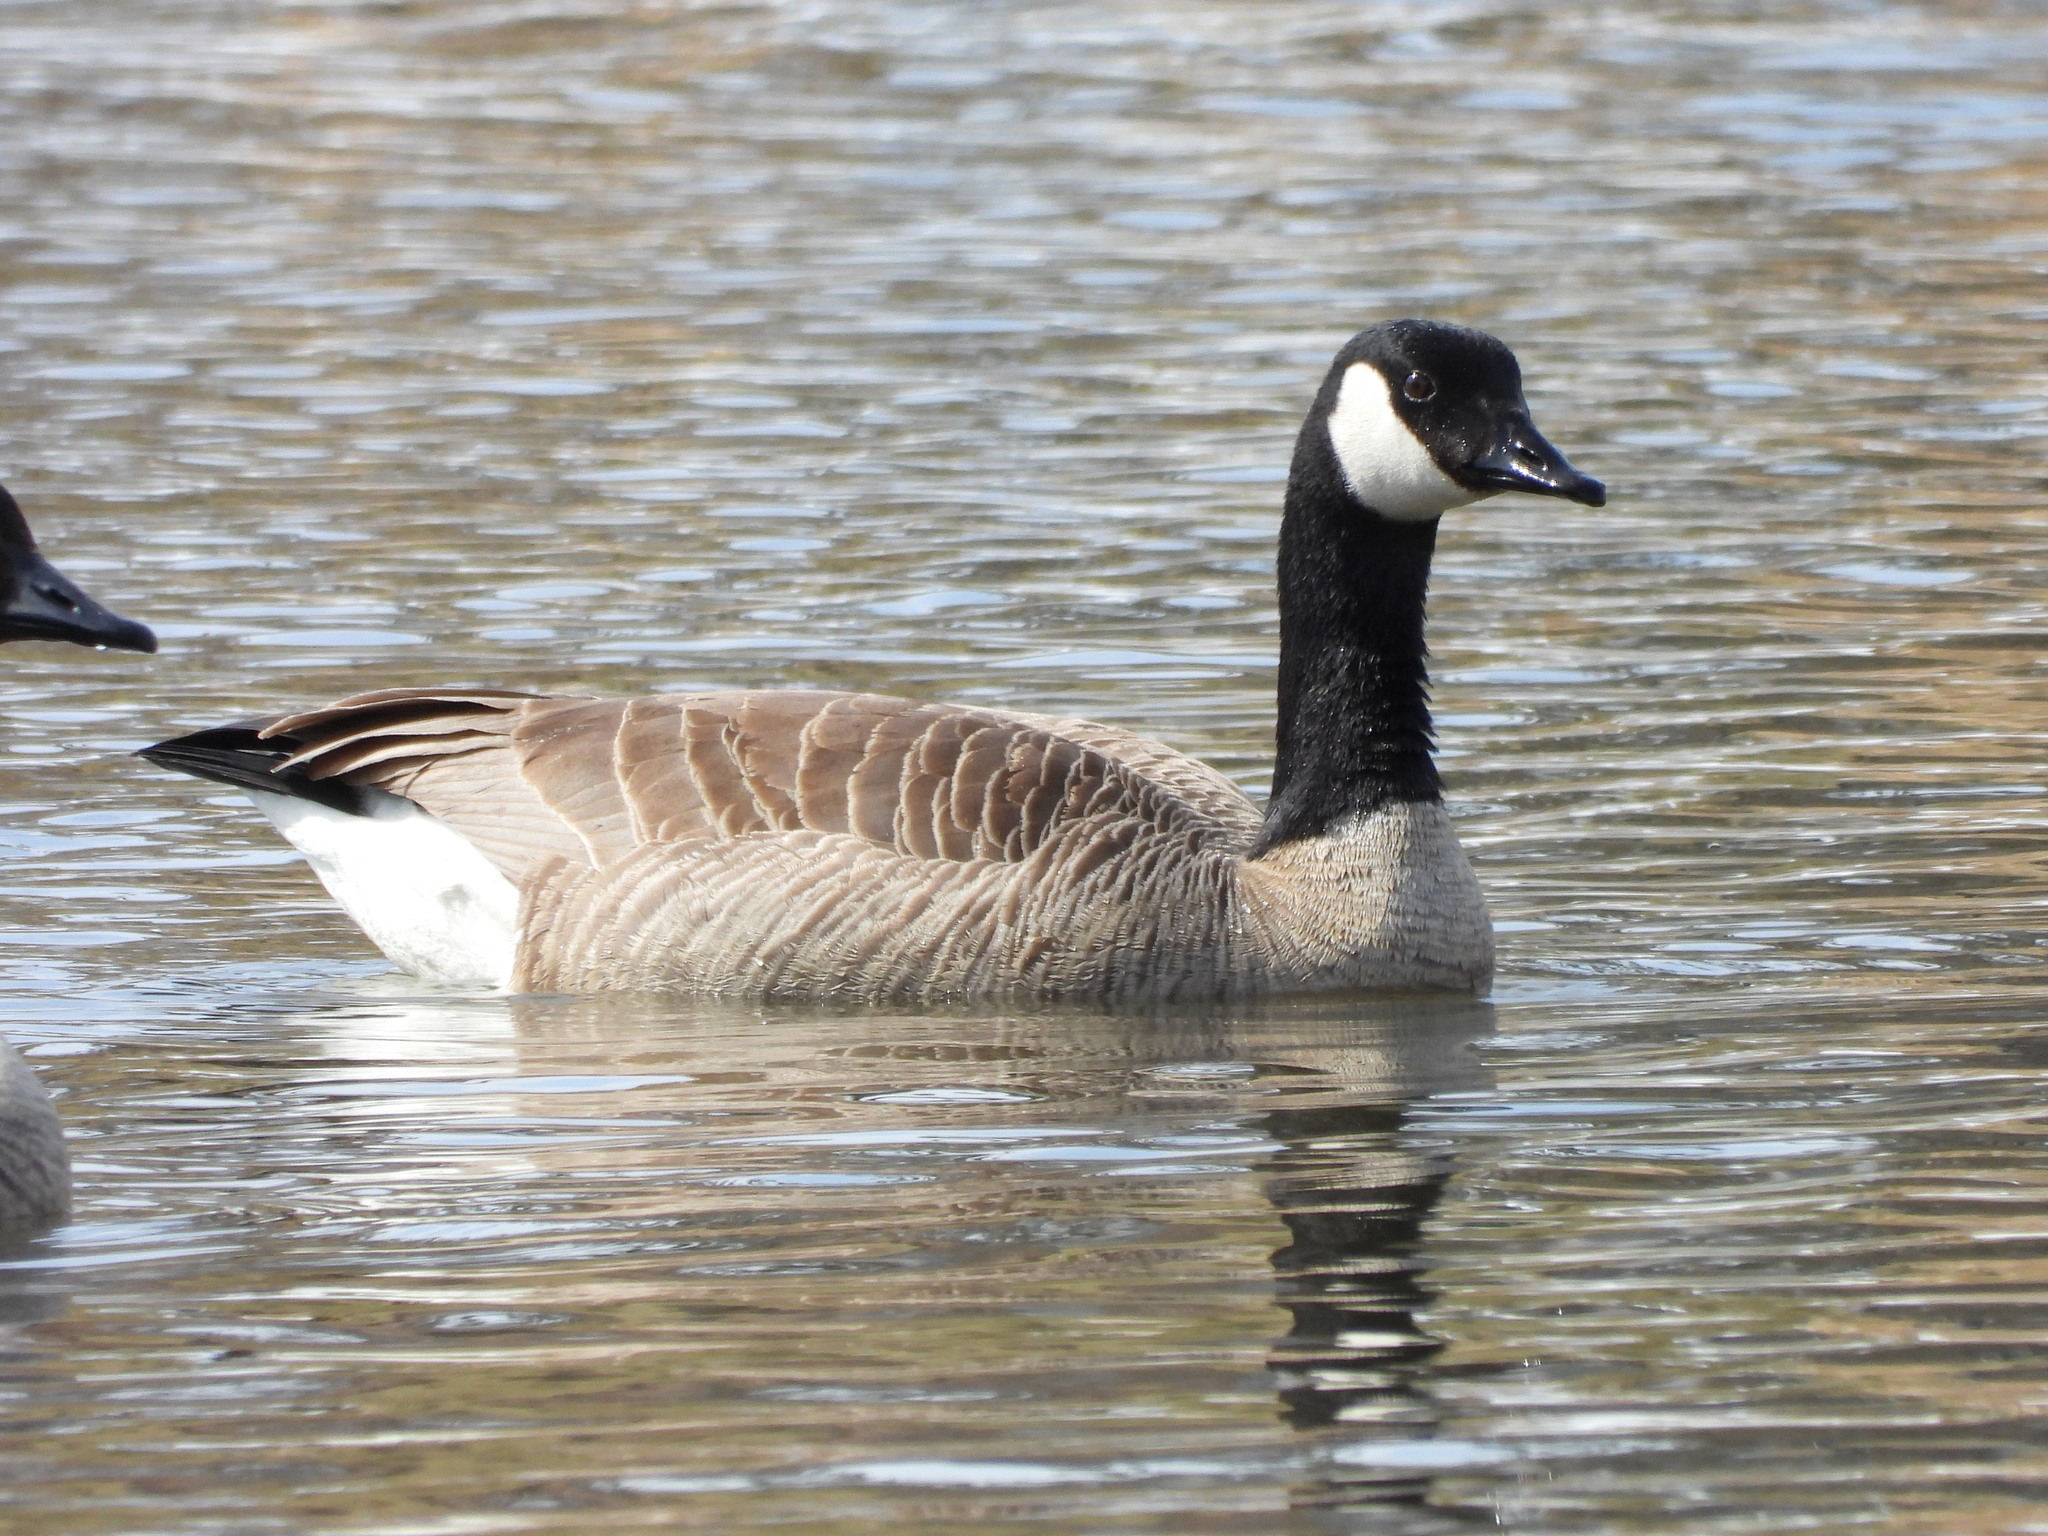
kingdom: Animalia
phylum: Chordata
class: Aves
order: Anseriformes
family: Anatidae
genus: Branta
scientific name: Branta canadensis
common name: Canada goose
